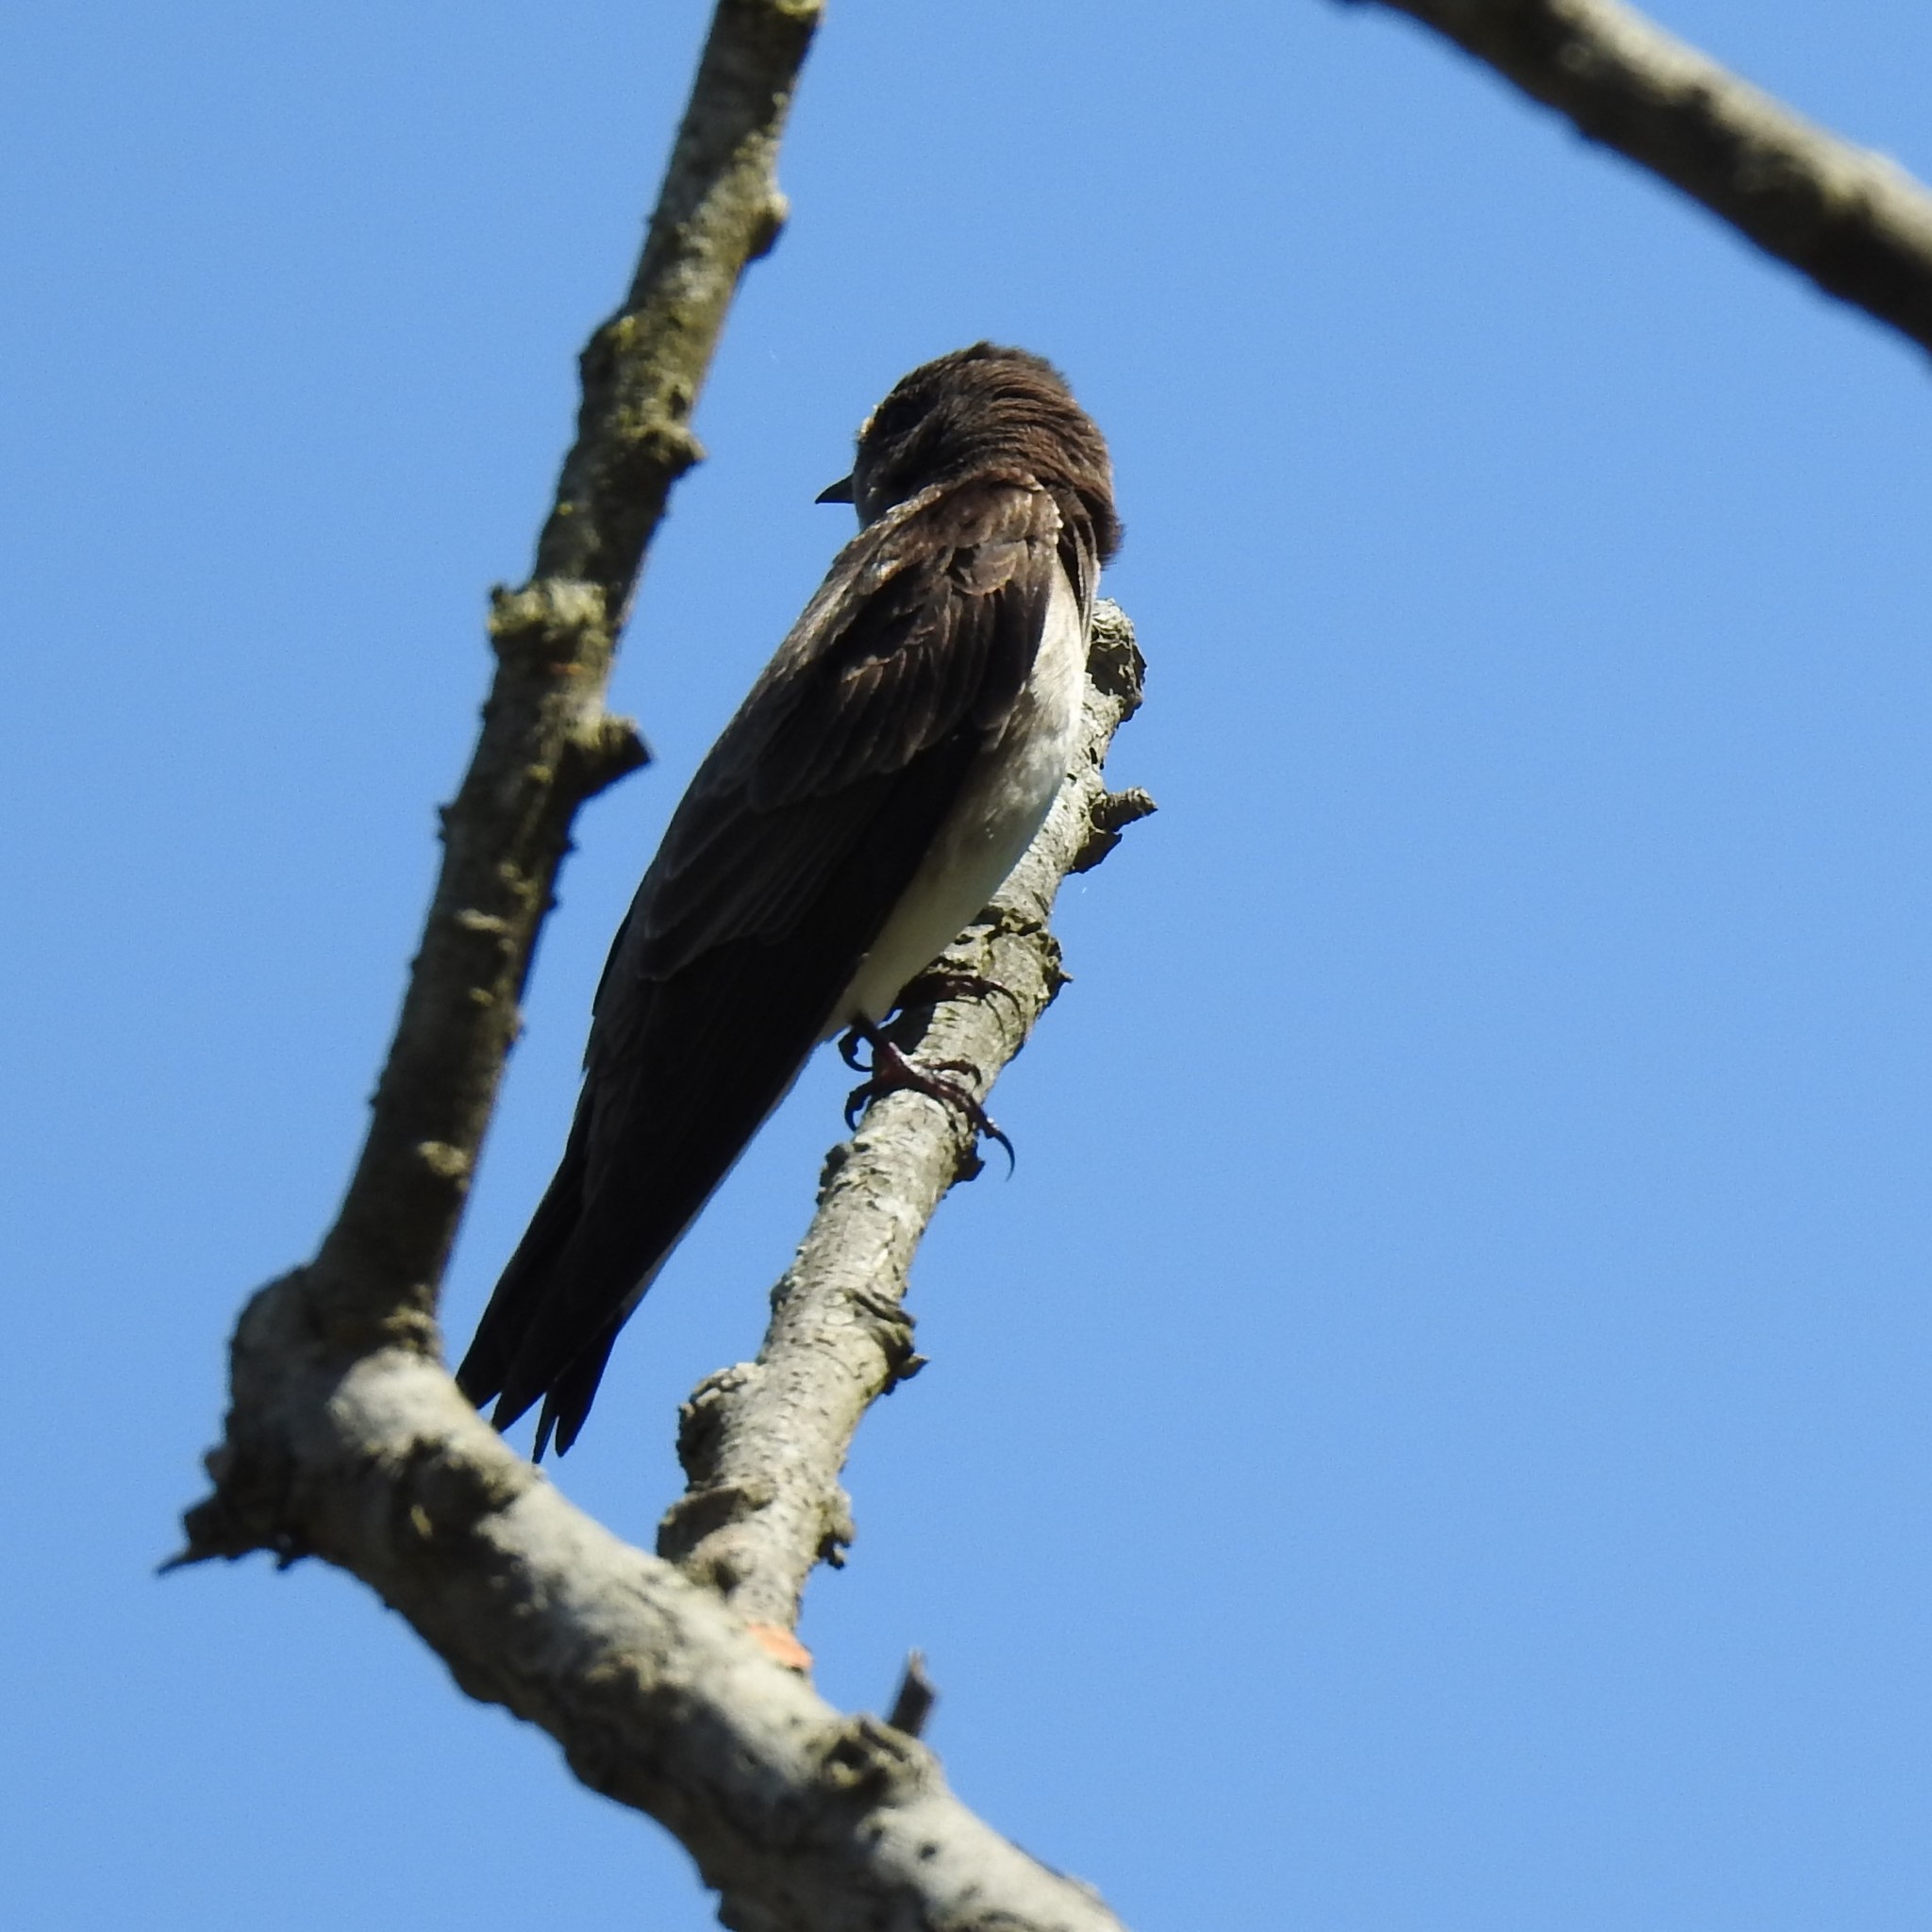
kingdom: Animalia
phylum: Chordata
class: Aves
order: Passeriformes
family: Hirundinidae
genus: Stelgidopteryx
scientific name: Stelgidopteryx serripennis
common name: Northern rough-winged swallow
